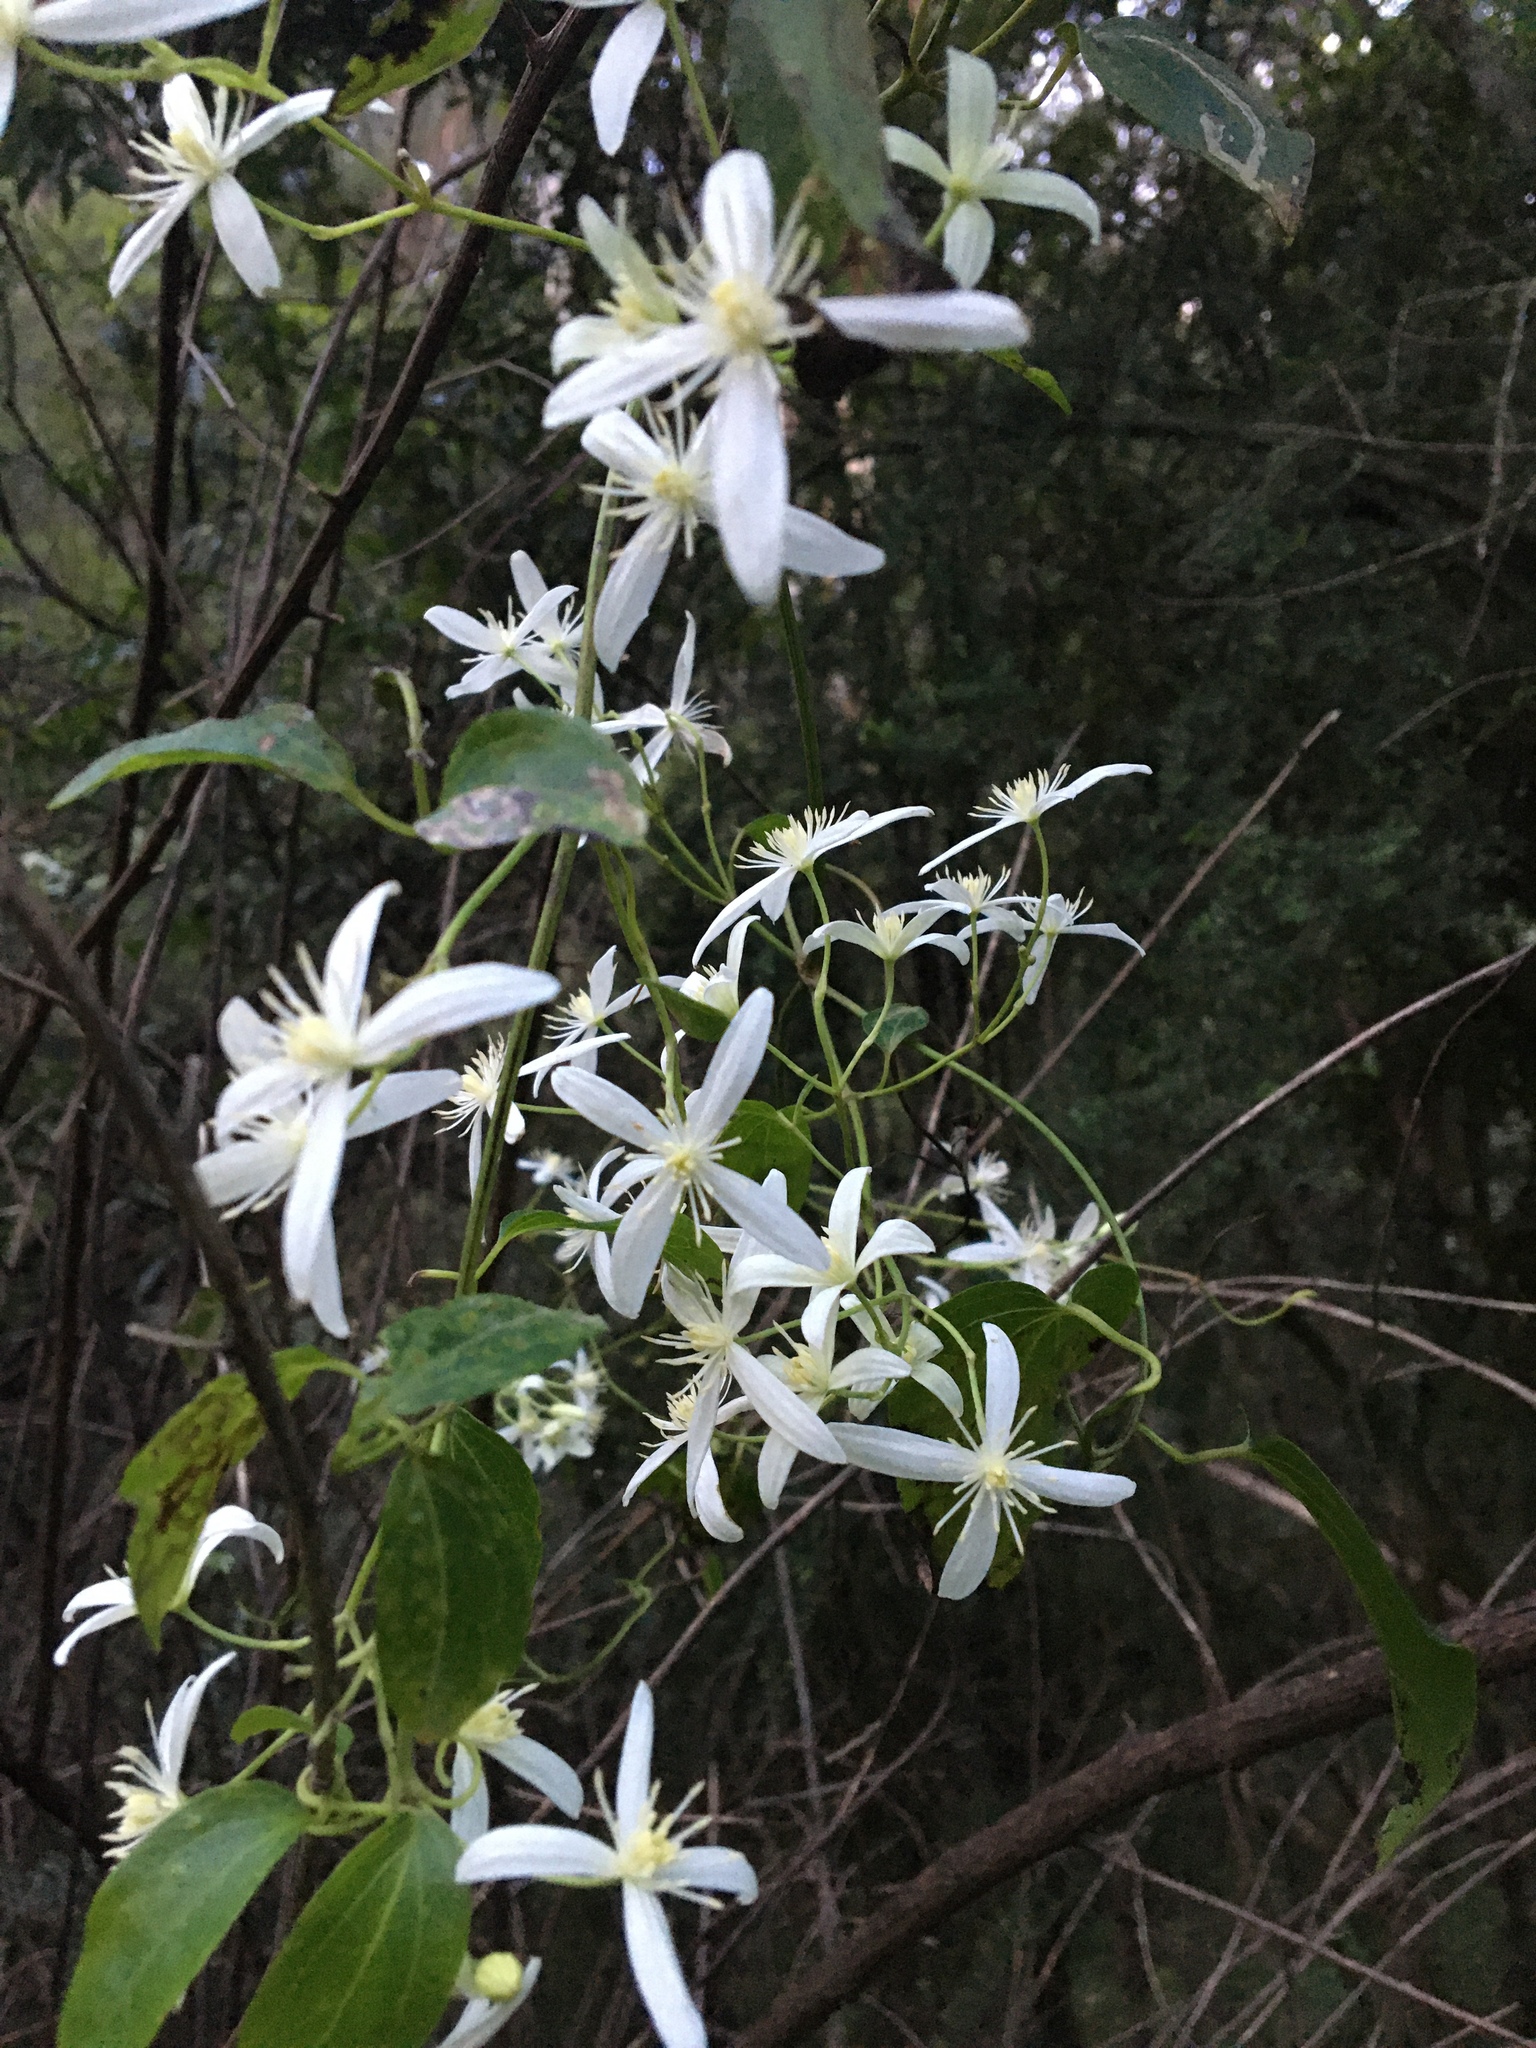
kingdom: Plantae
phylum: Tracheophyta
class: Magnoliopsida
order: Ranunculales
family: Ranunculaceae
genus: Clematis
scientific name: Clematis aristata
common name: Mountain clematis
